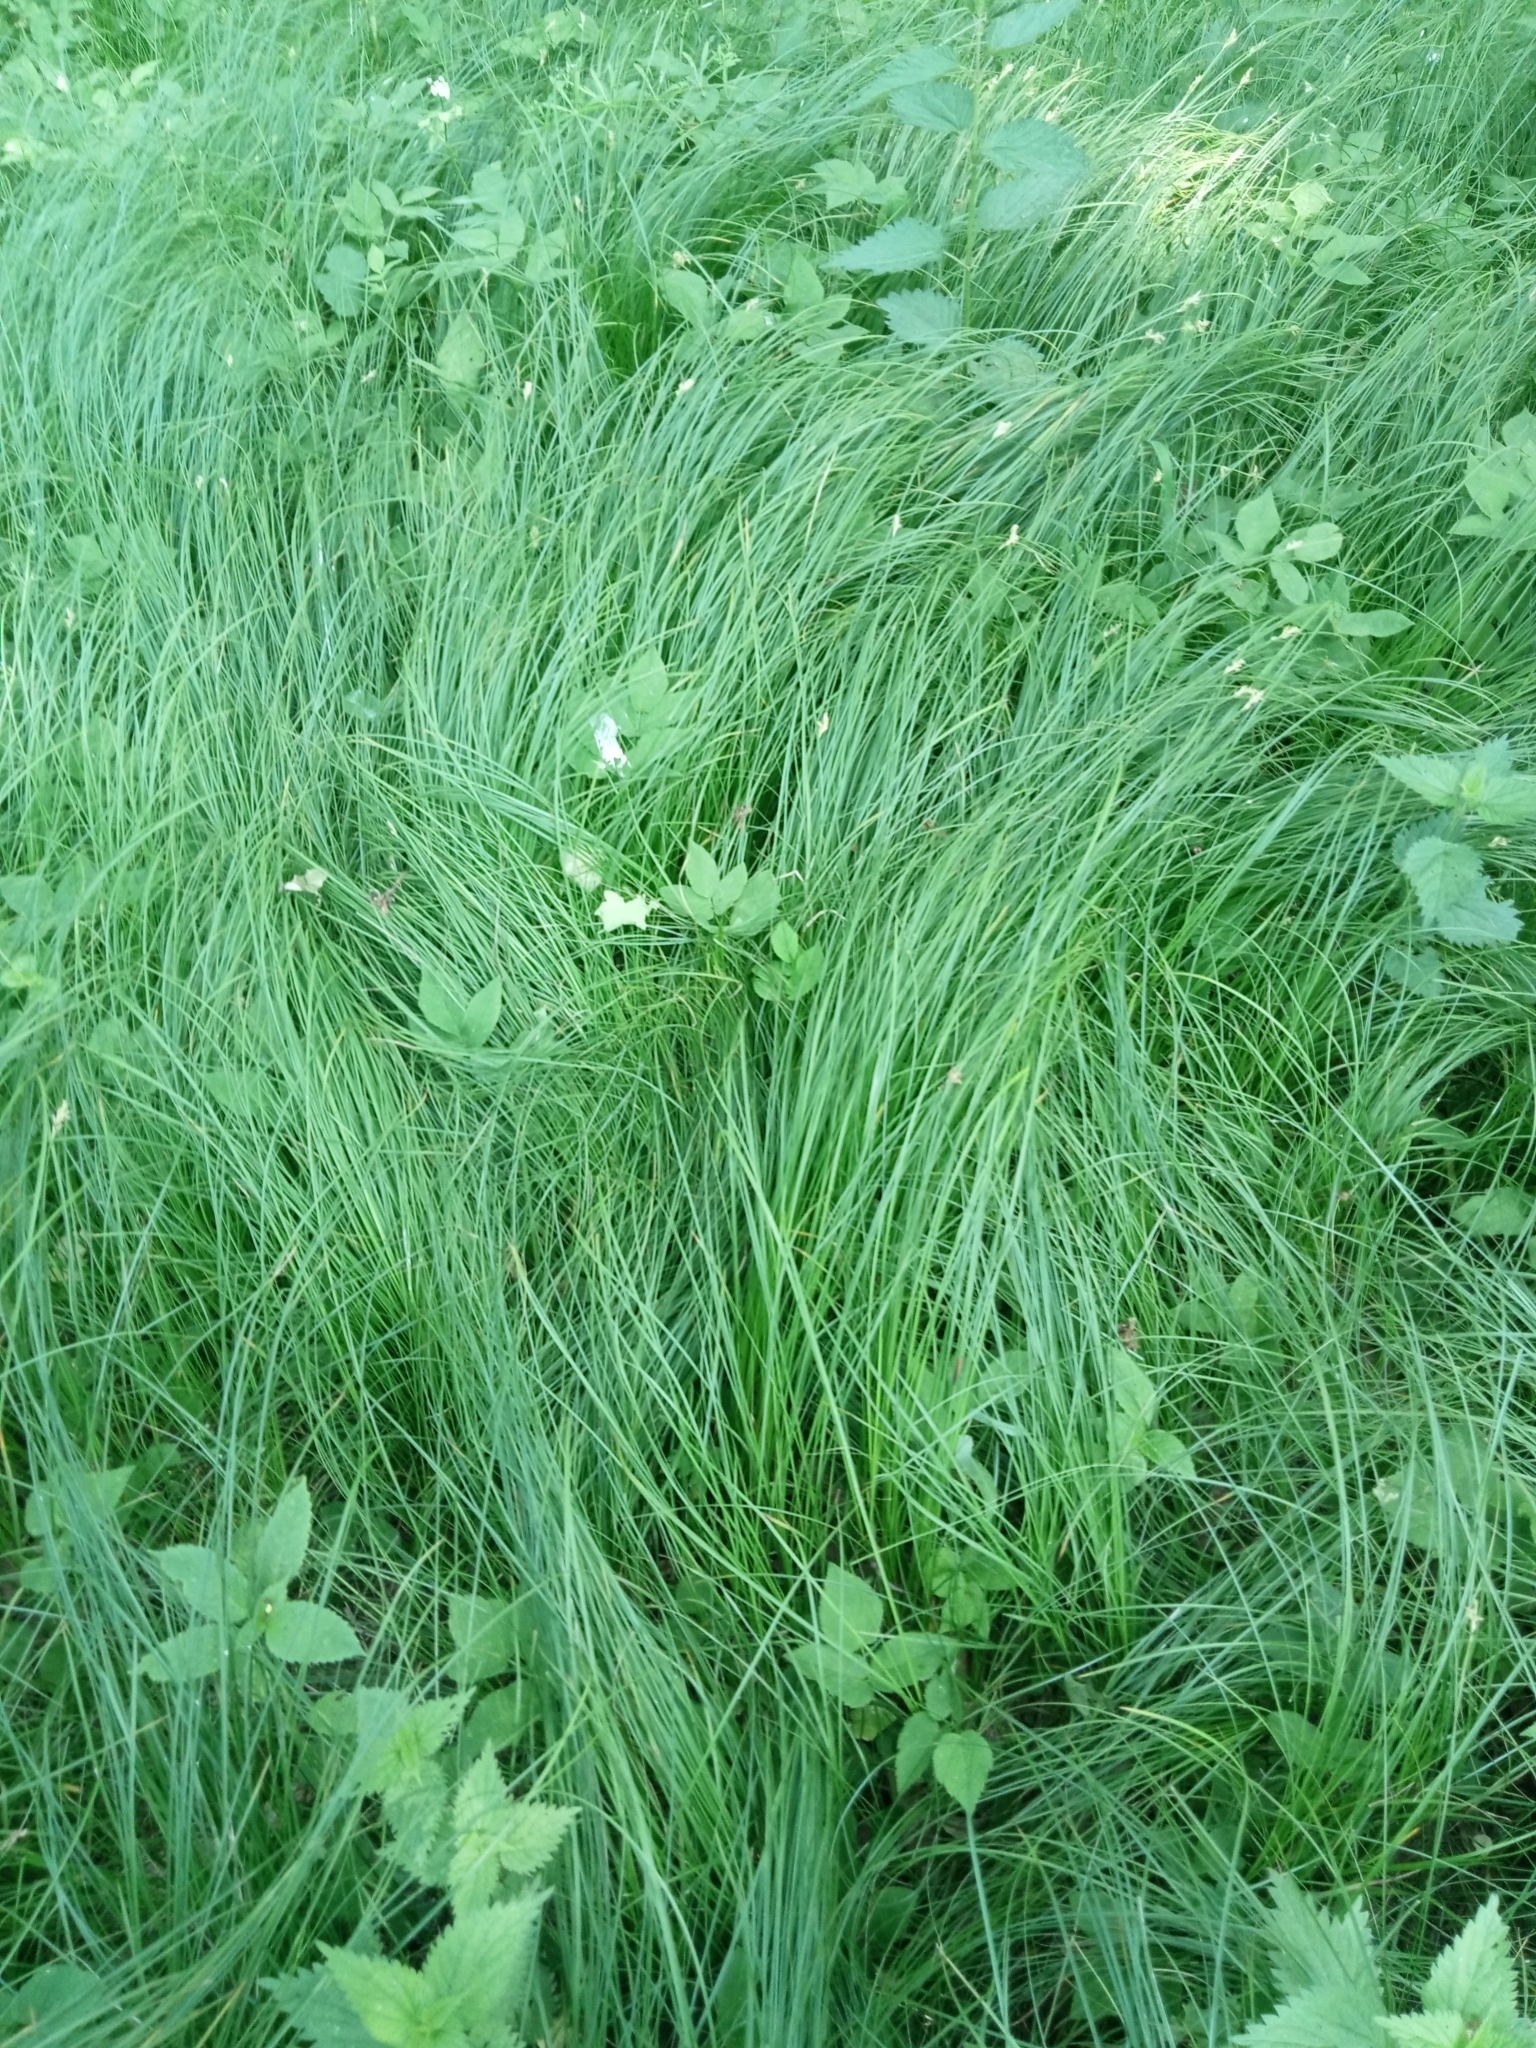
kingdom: Plantae
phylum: Tracheophyta
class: Liliopsida
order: Poales
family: Cyperaceae
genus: Carex
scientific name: Carex brizoides
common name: Quaking-grass sedge
